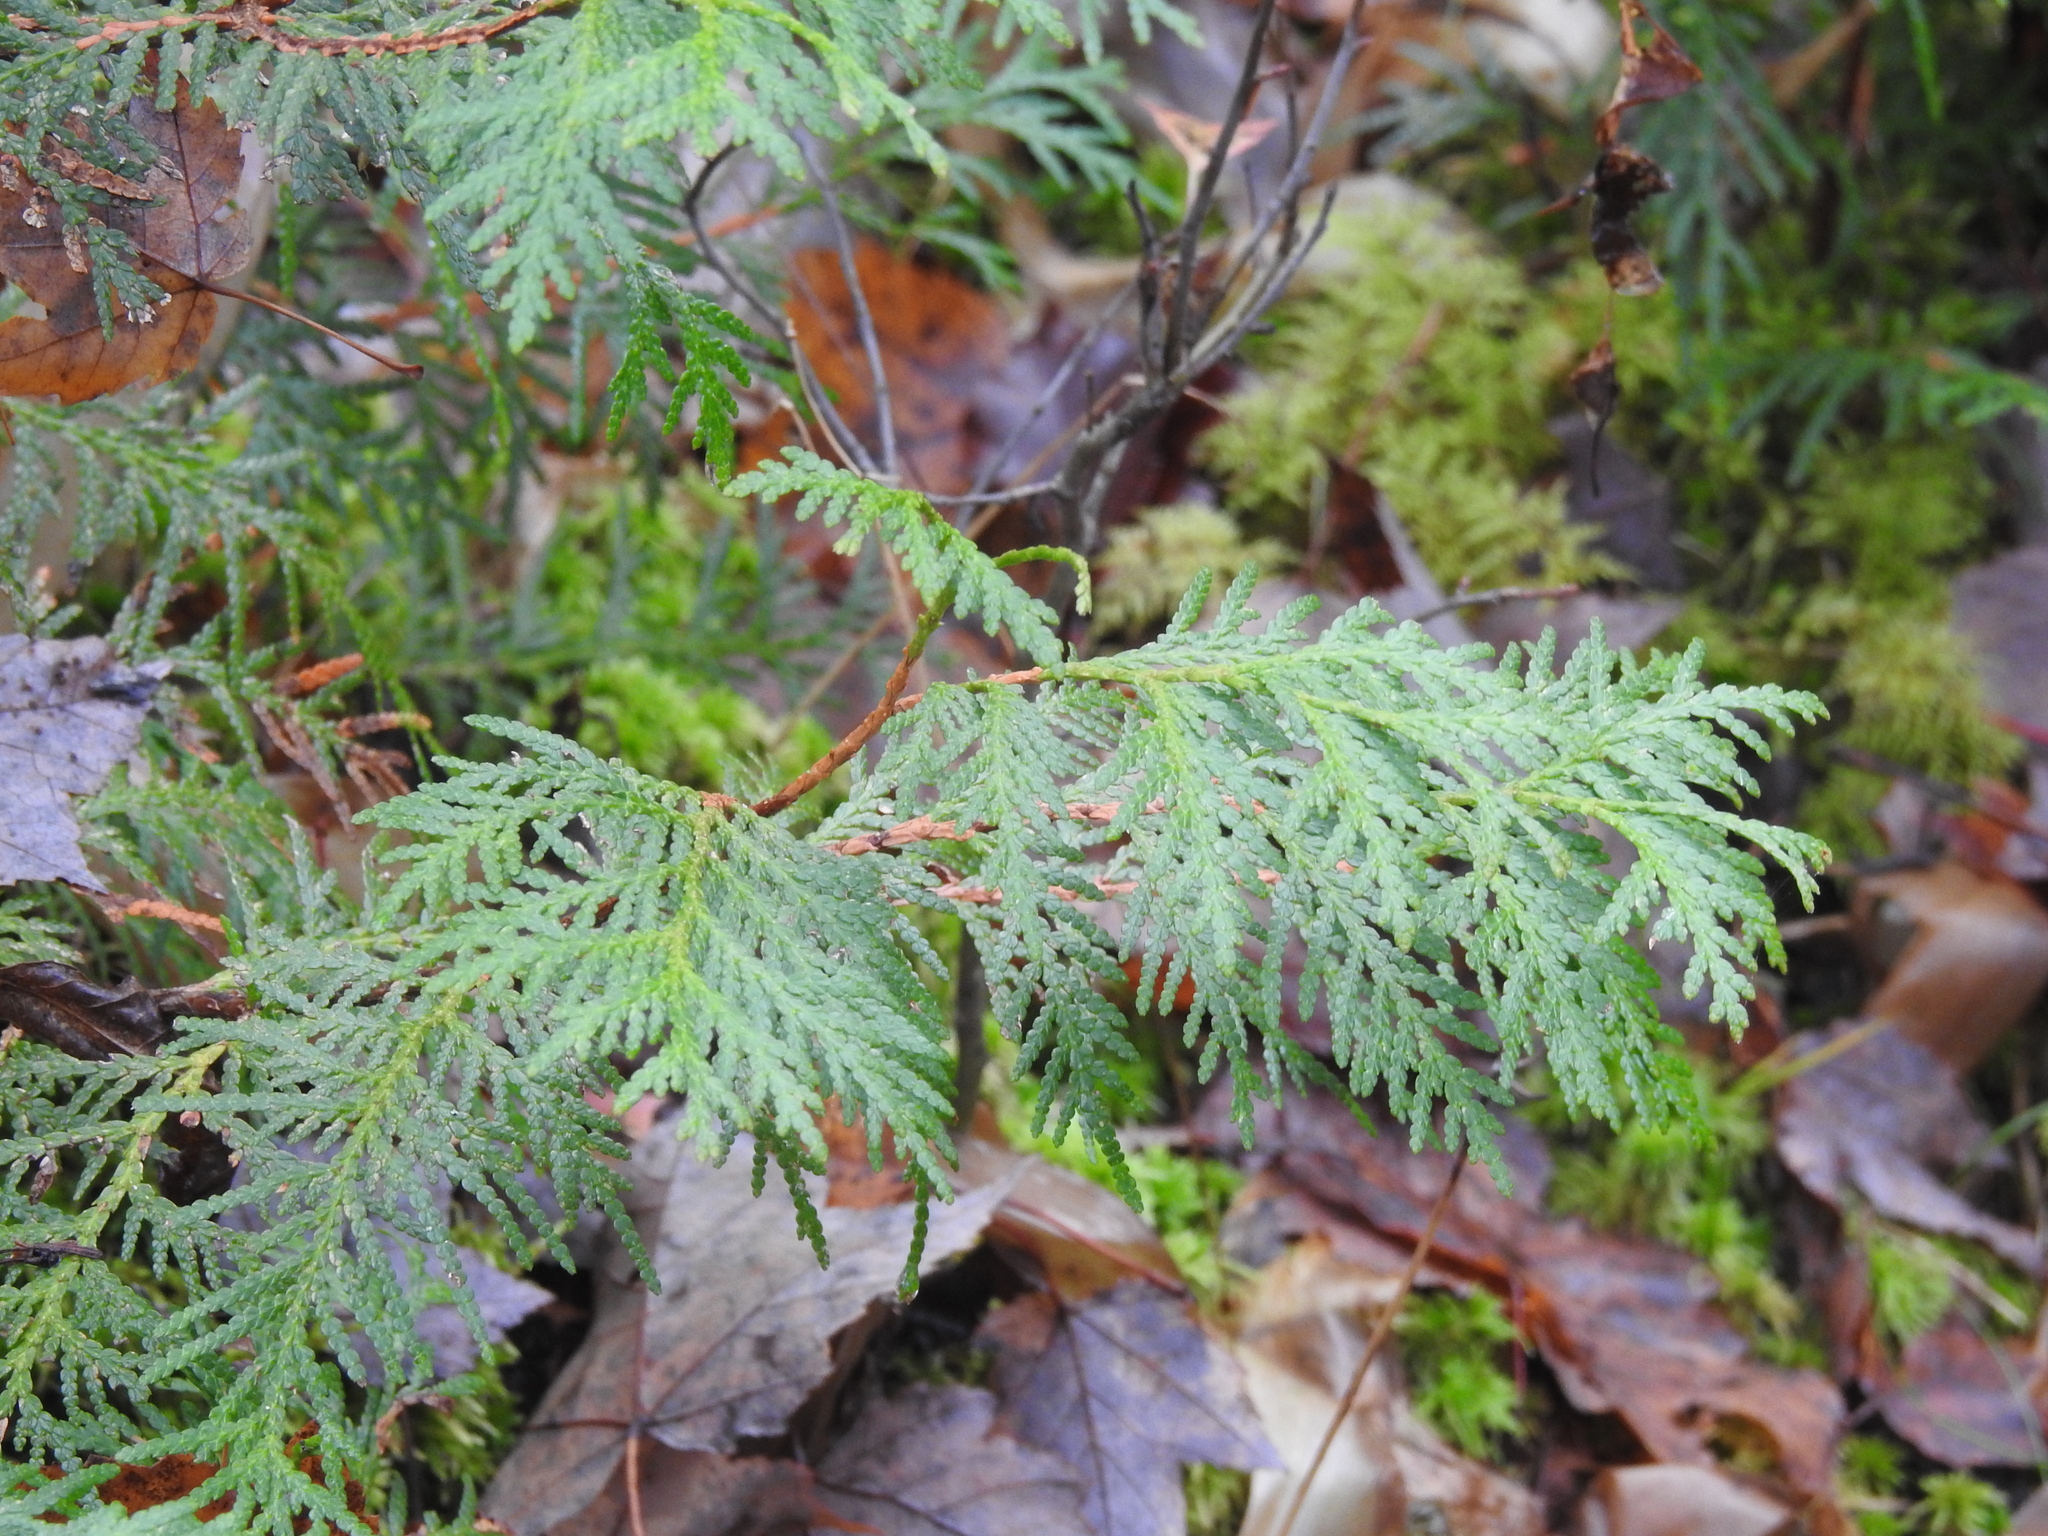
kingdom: Plantae
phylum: Tracheophyta
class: Pinopsida
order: Pinales
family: Cupressaceae
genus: Thuja
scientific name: Thuja occidentalis
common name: Northern white-cedar
